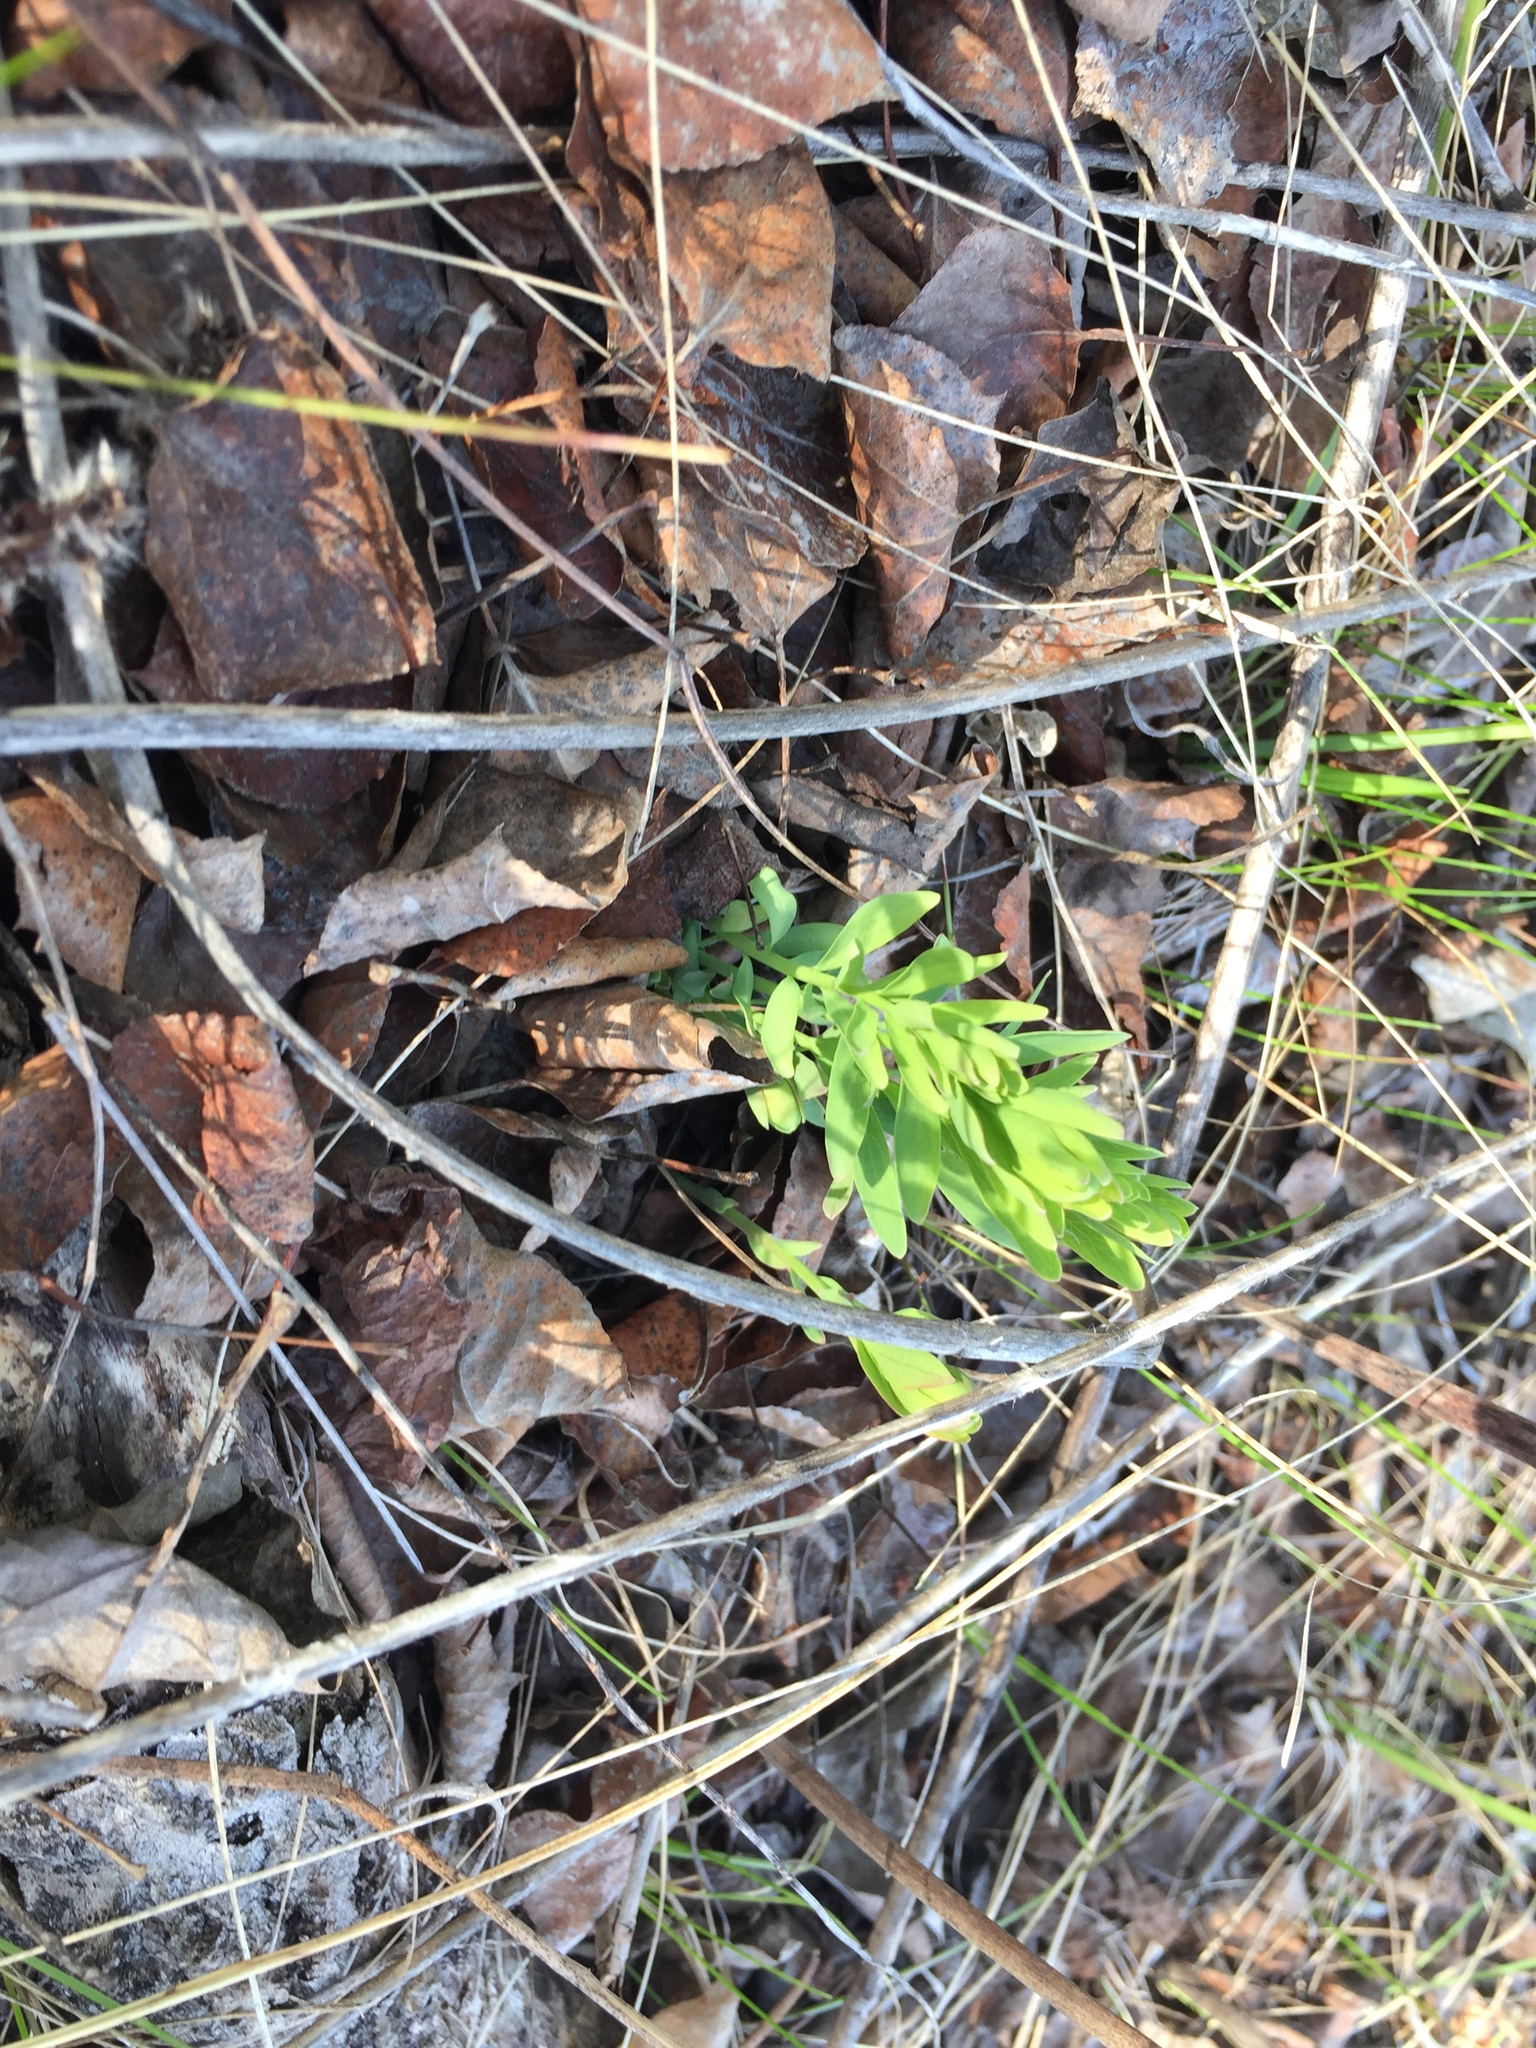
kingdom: Plantae
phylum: Tracheophyta
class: Magnoliopsida
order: Santalales
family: Comandraceae
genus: Comandra
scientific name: Comandra umbellata
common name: Bastard toadflax
